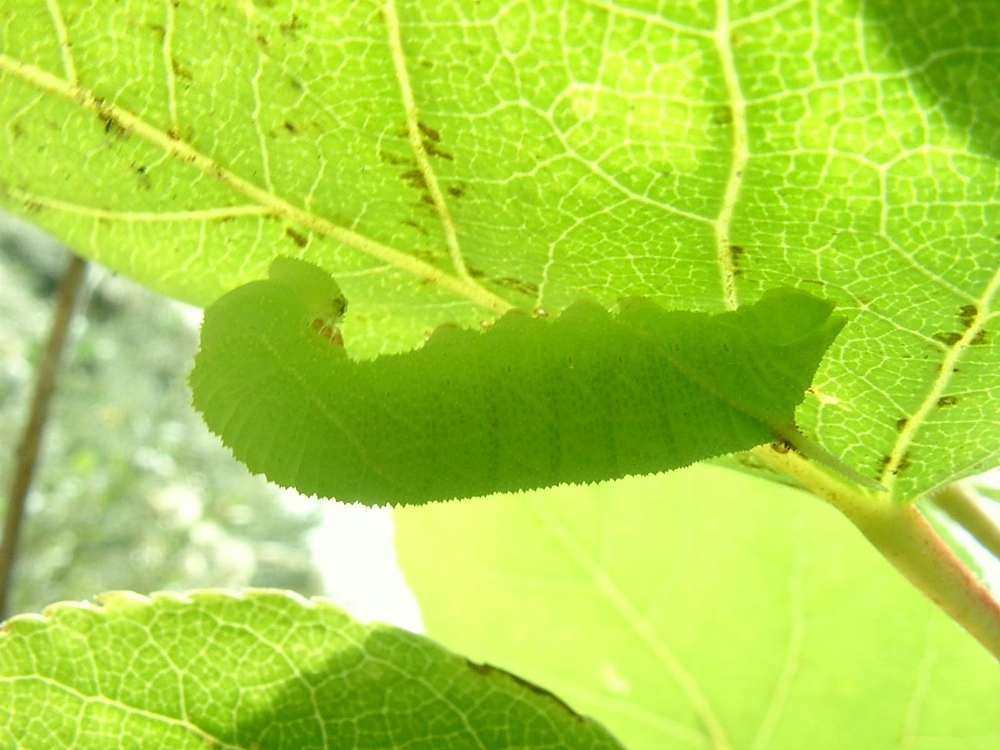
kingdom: Animalia
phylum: Arthropoda
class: Insecta
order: Lepidoptera
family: Sphingidae
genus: Laothoe
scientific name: Laothoe populi
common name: Poplar hawk-moth
